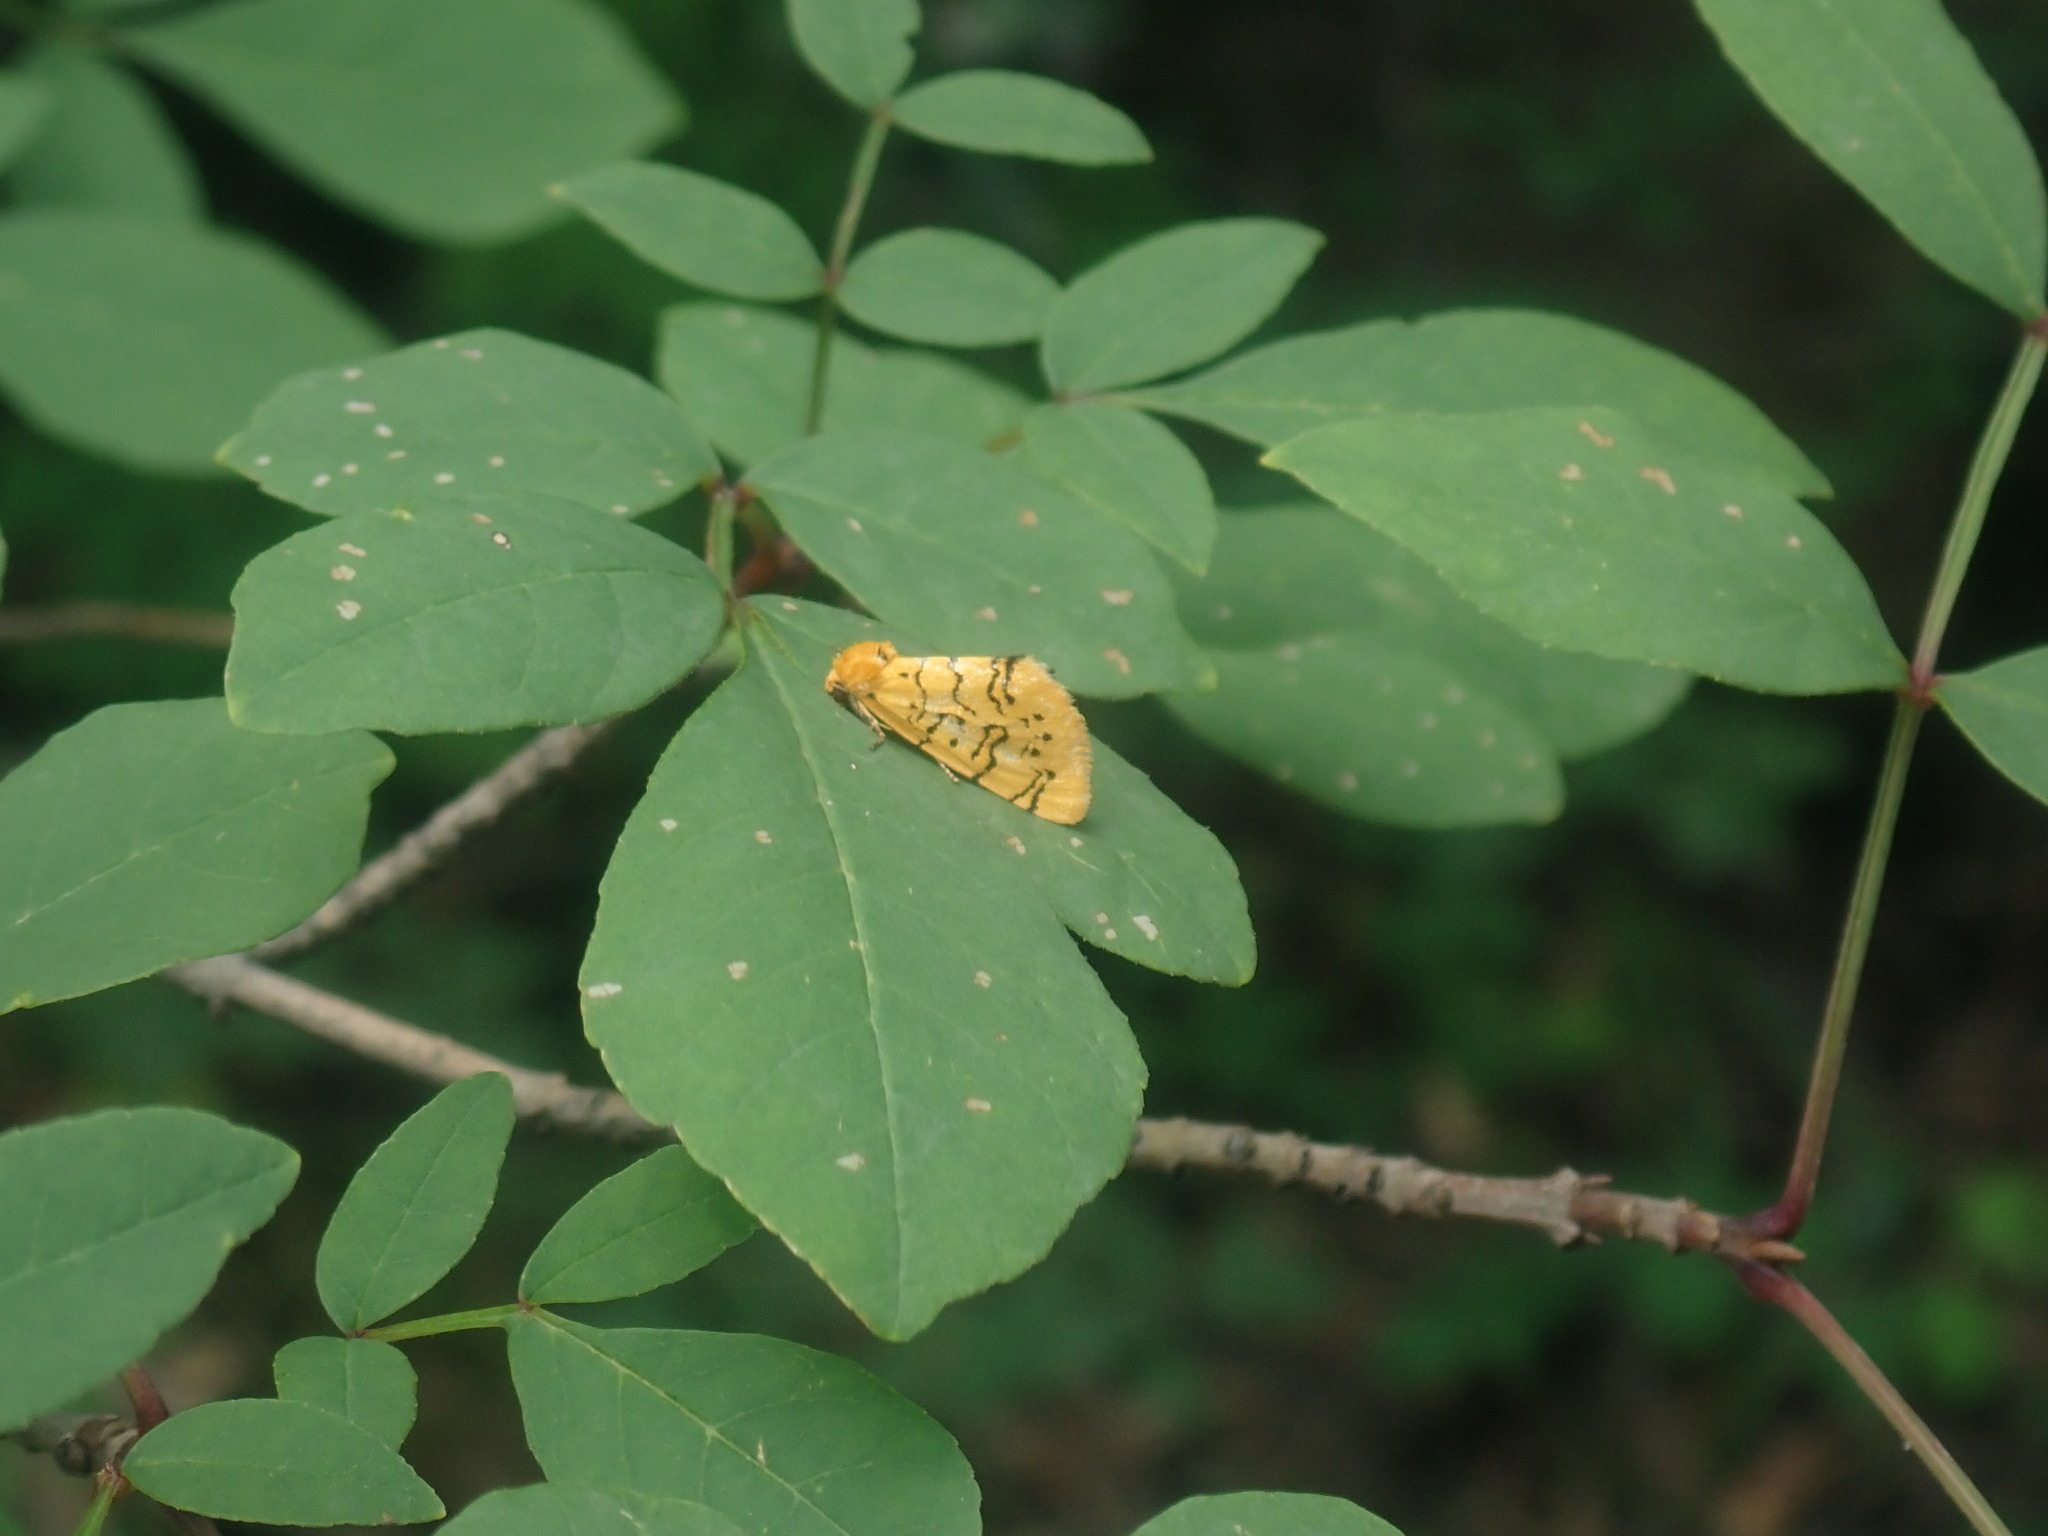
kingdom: Animalia
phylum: Arthropoda
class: Insecta
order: Lepidoptera
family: Noctuidae
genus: Chrysoecia
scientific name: Chrysoecia atrolinea
